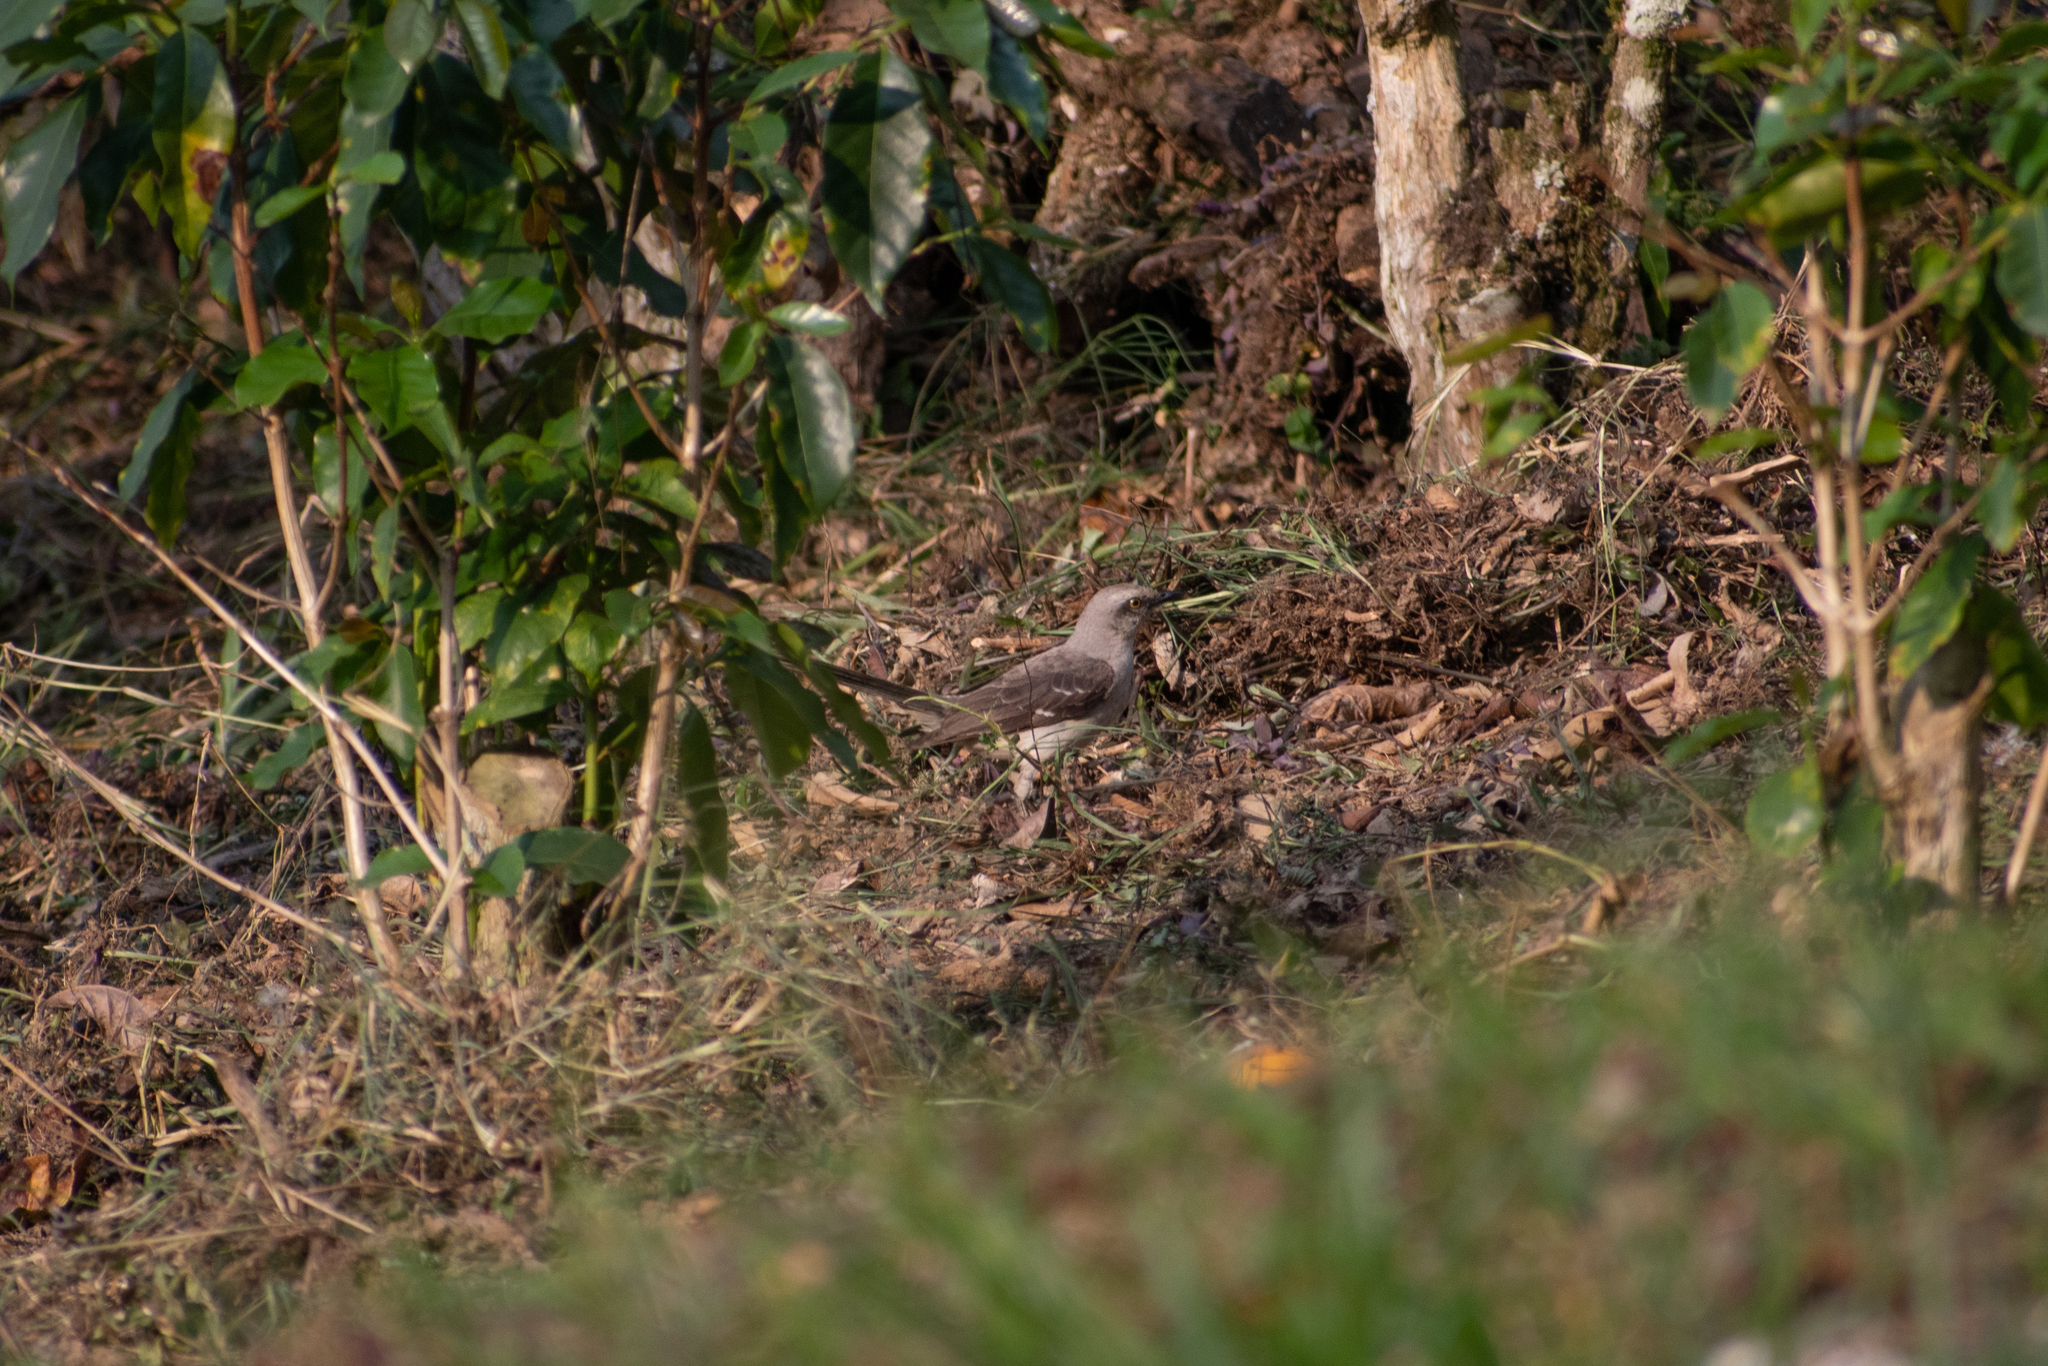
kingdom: Animalia
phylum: Chordata
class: Aves
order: Passeriformes
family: Mimidae
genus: Mimus
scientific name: Mimus gilvus
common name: Tropical mockingbird
